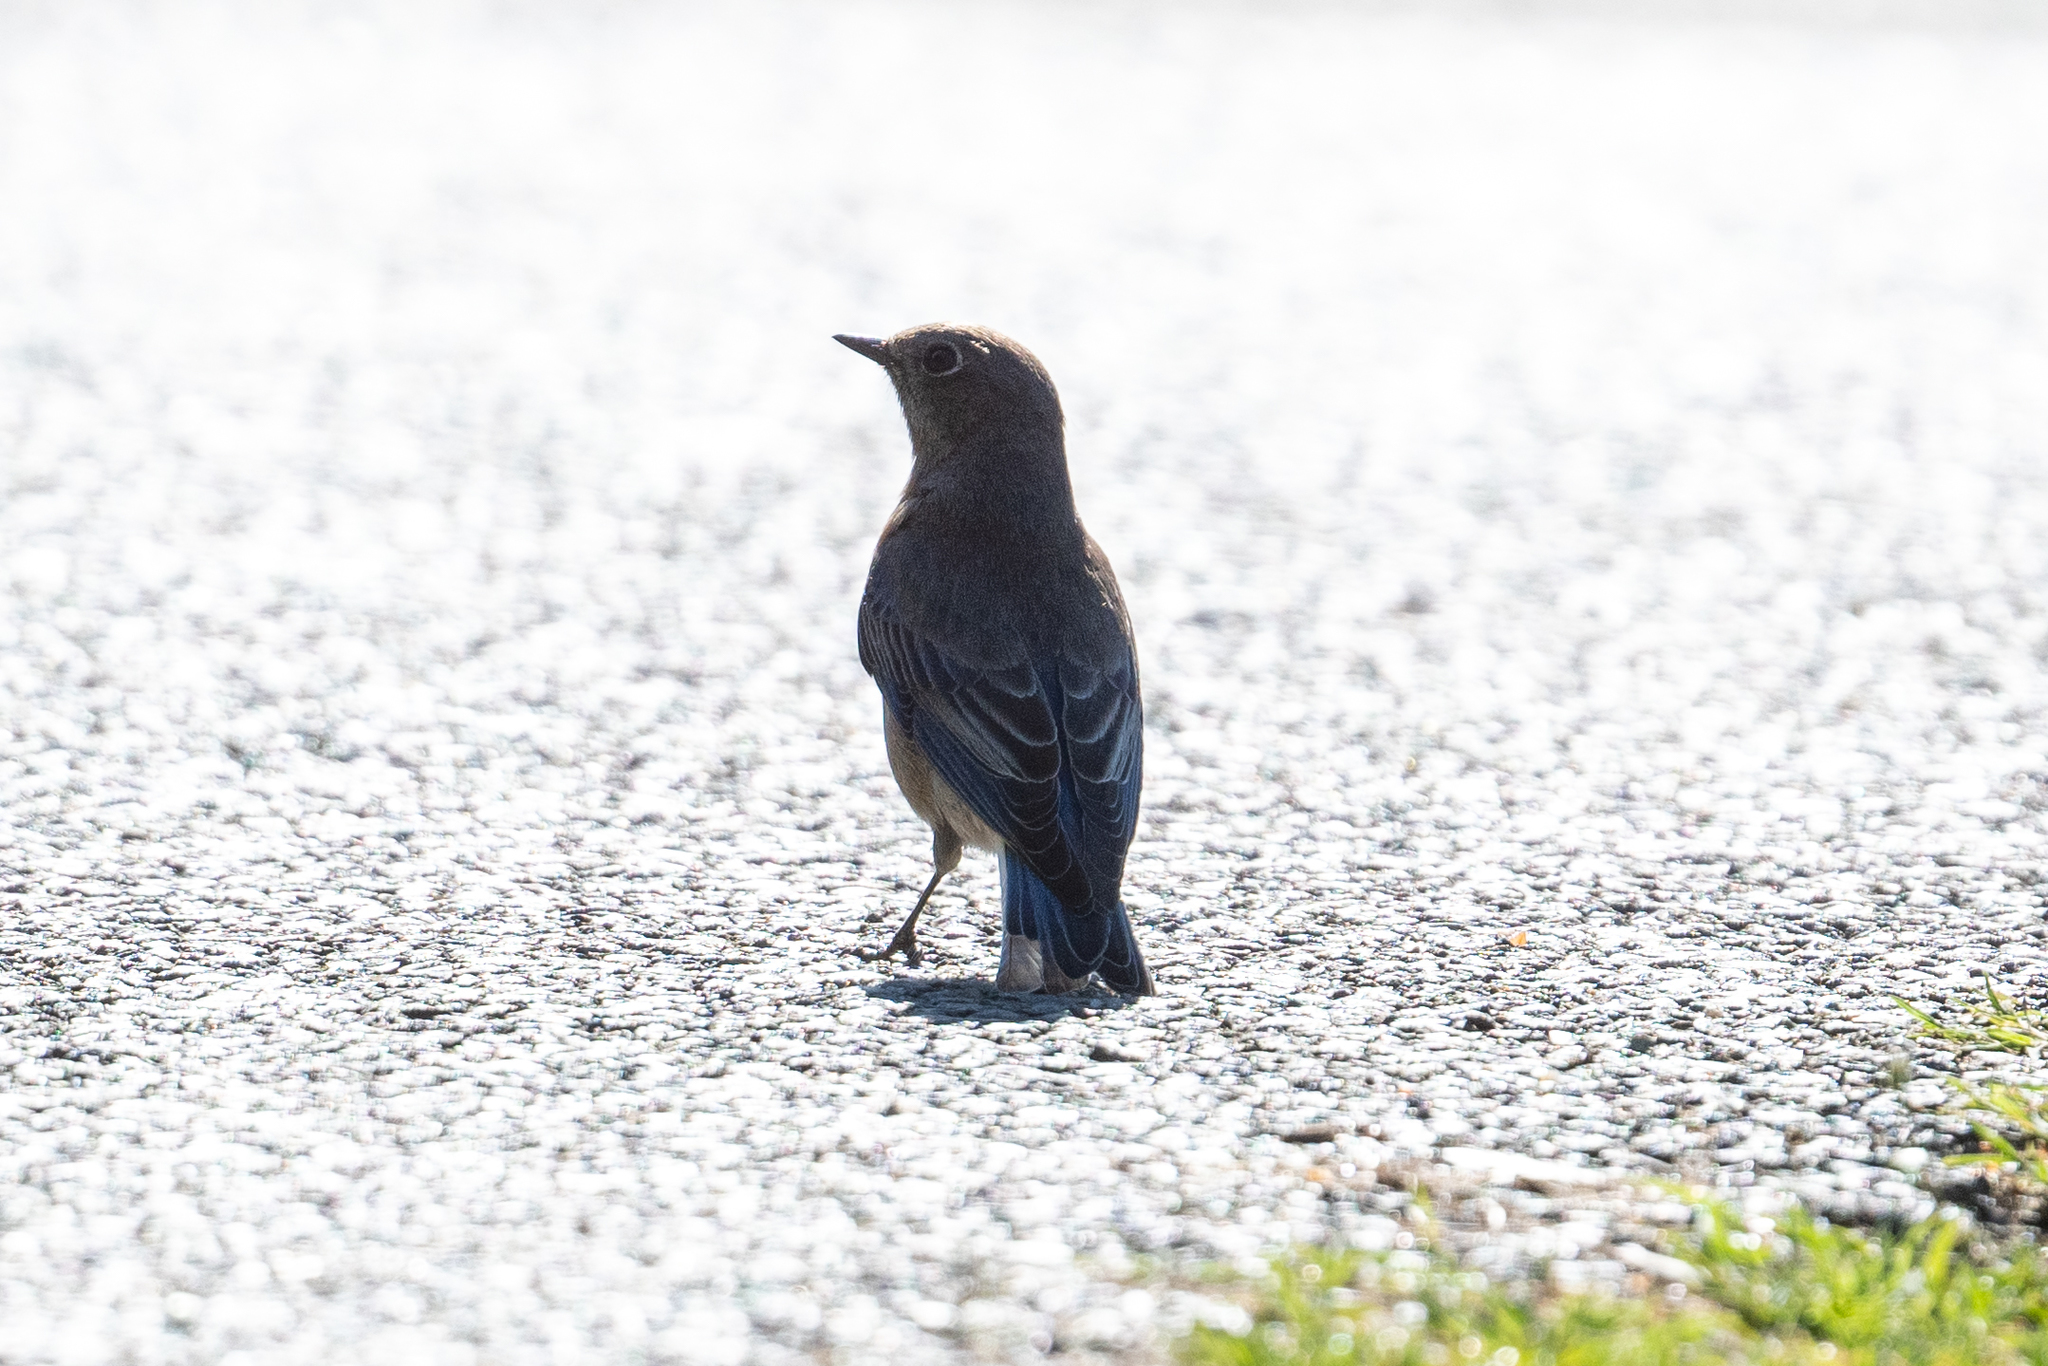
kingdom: Animalia
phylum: Chordata
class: Aves
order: Passeriformes
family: Turdidae
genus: Sialia
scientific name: Sialia mexicana
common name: Western bluebird
